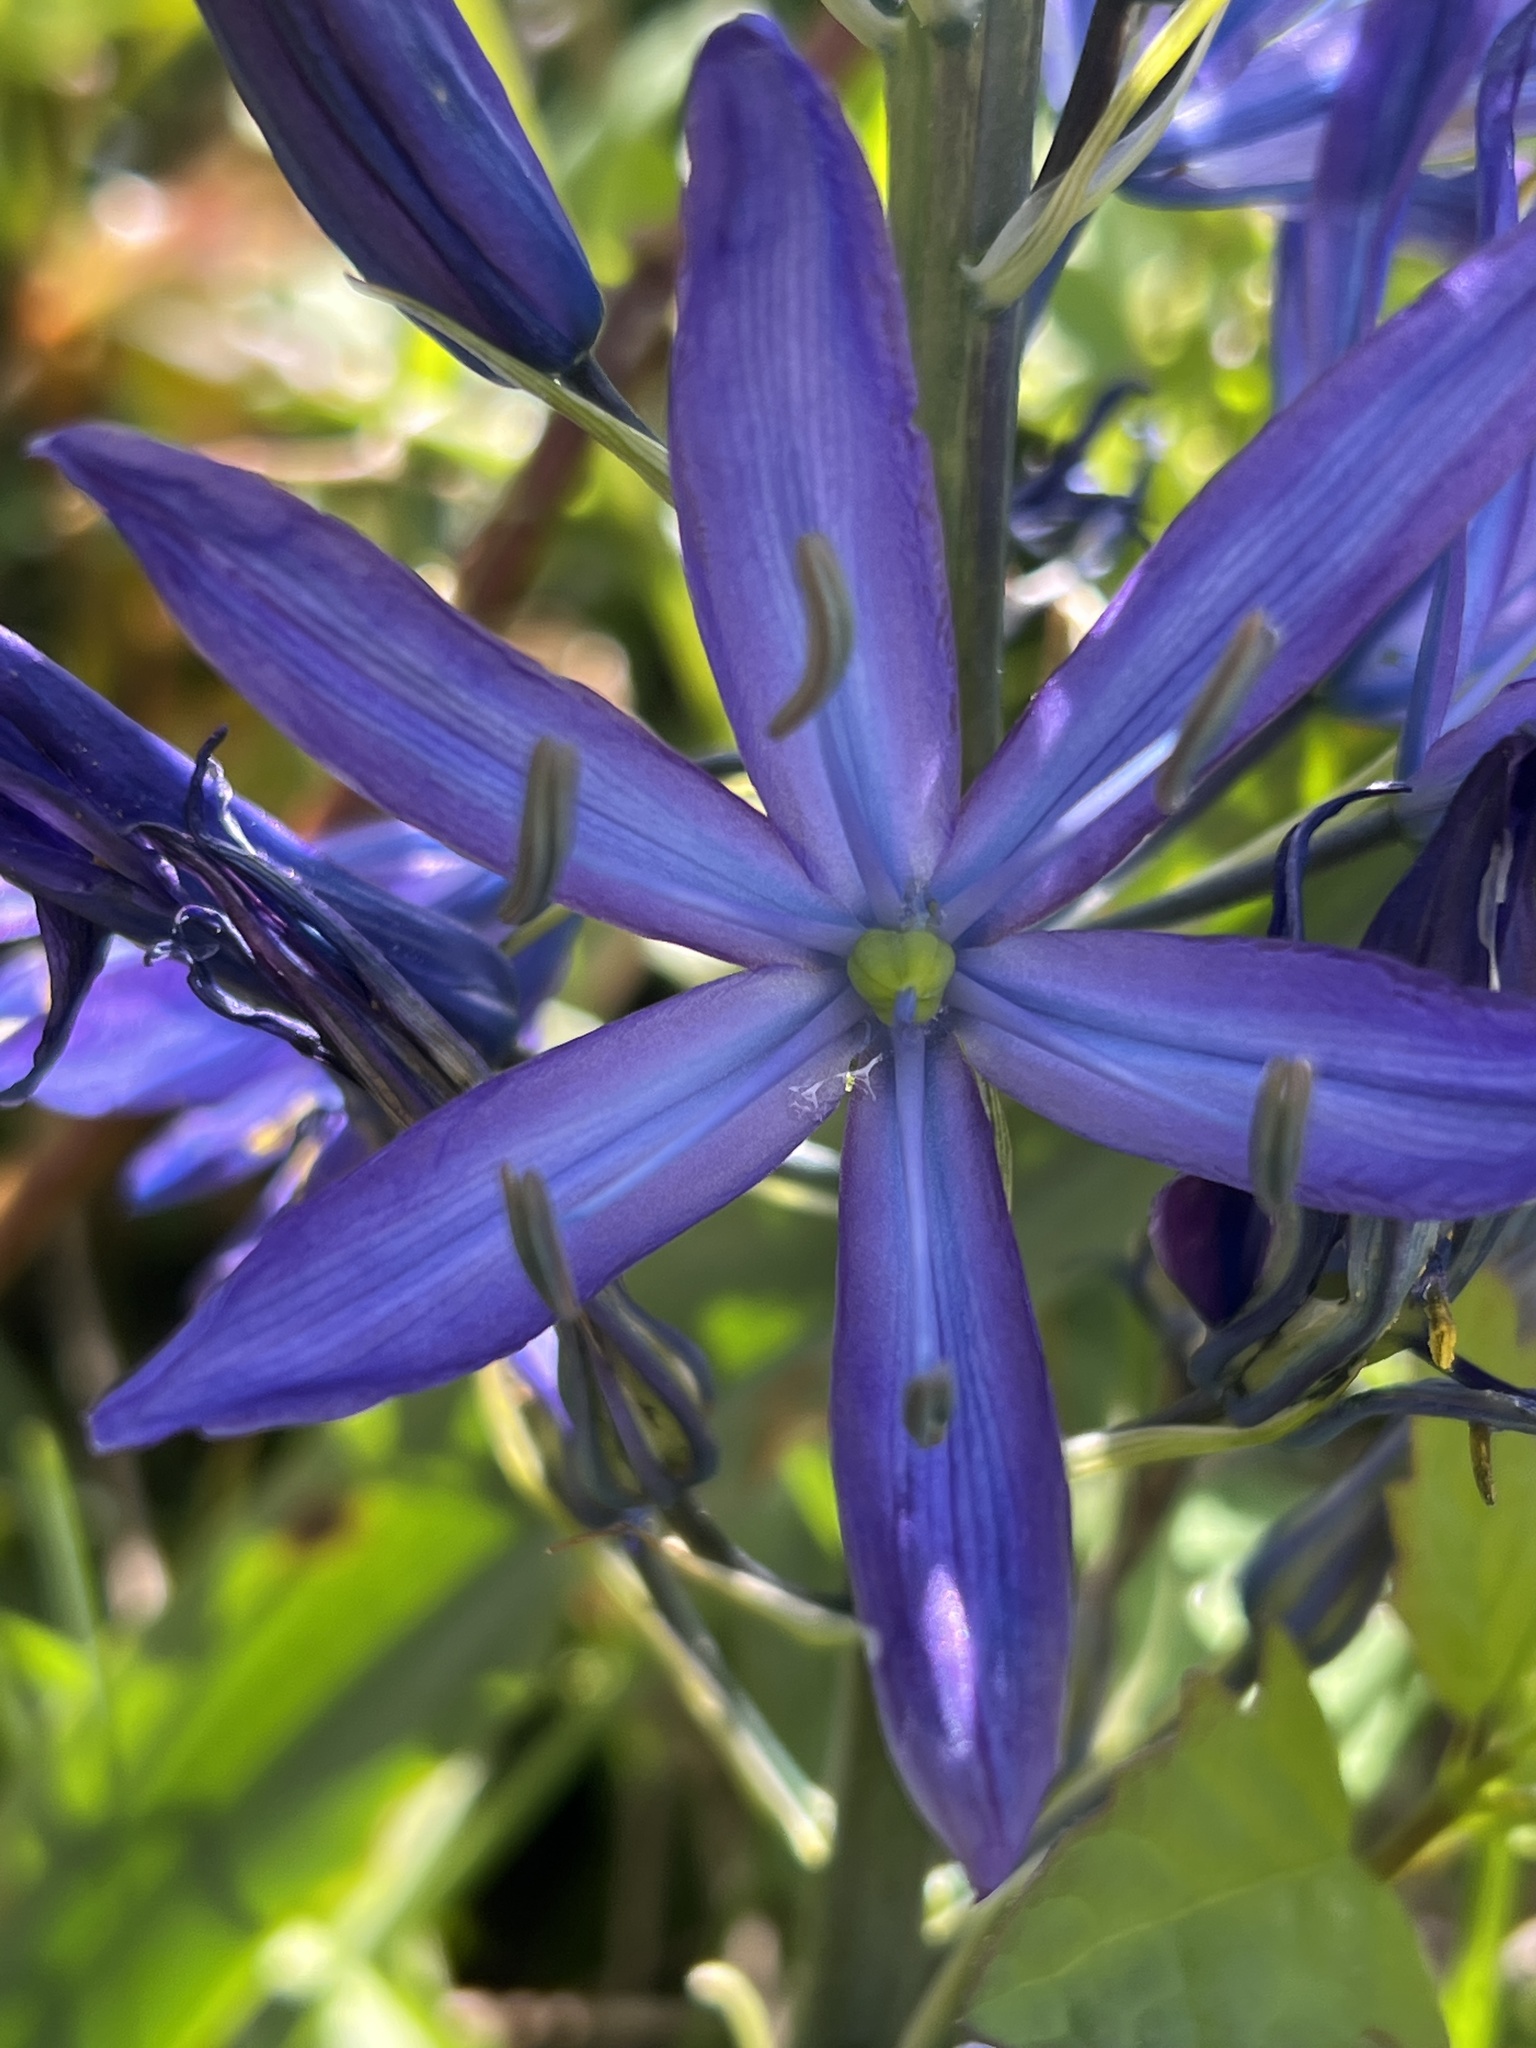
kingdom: Plantae
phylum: Tracheophyta
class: Liliopsida
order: Asparagales
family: Asparagaceae
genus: Camassia
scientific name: Camassia leichtlinii
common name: Leichtlin's camas
